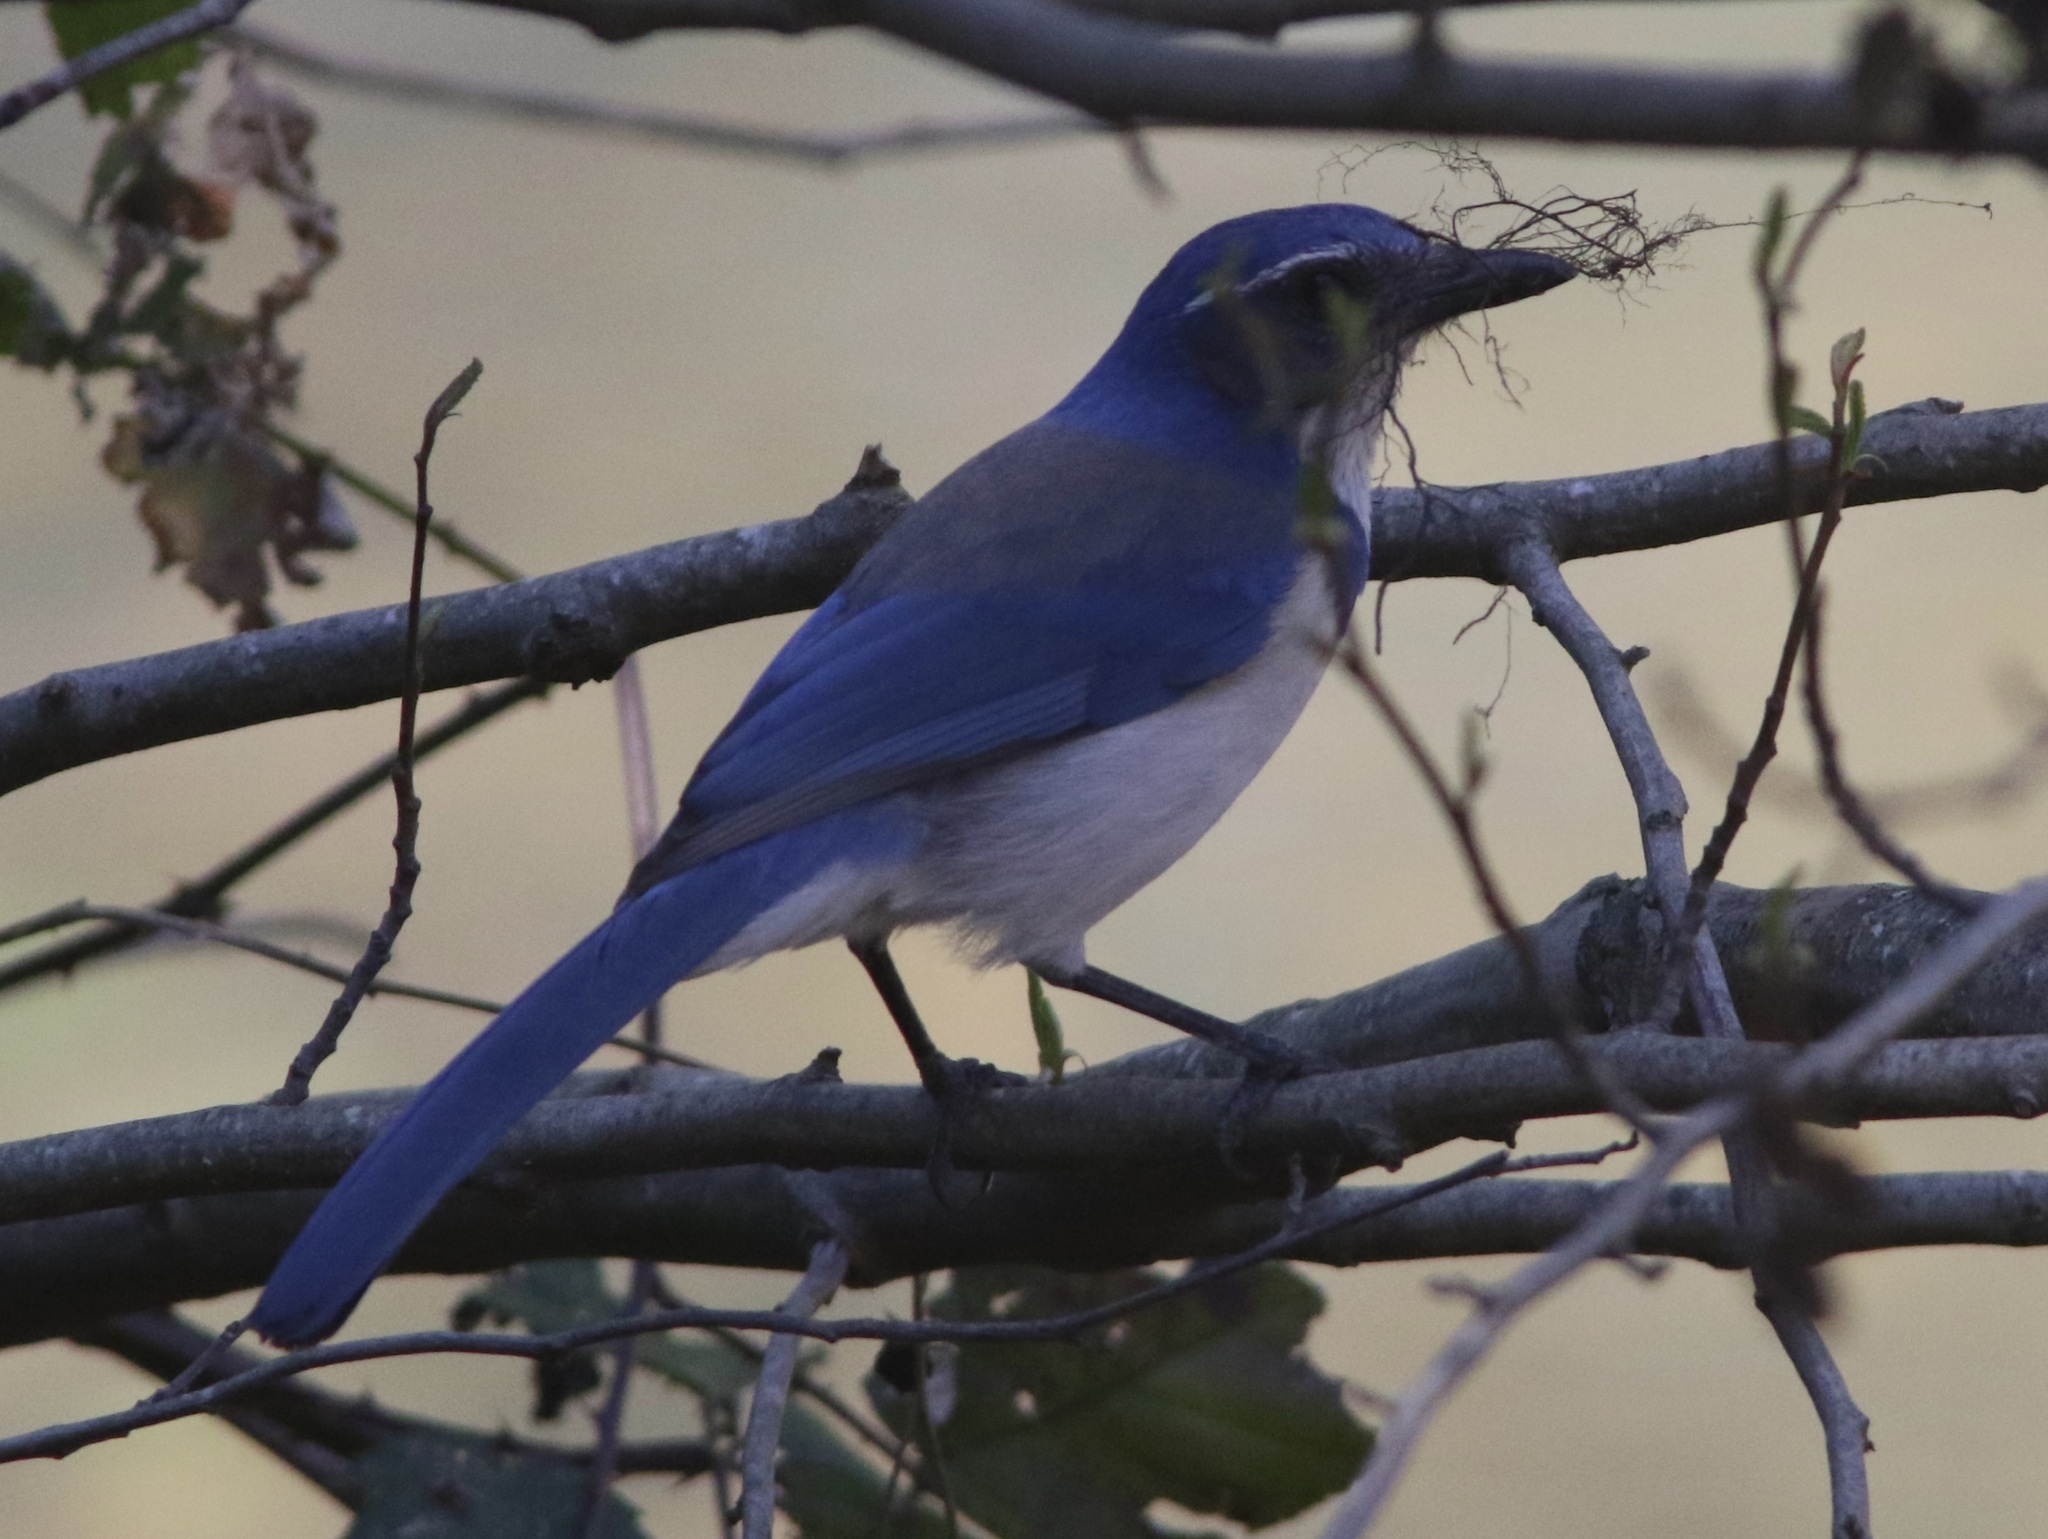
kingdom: Animalia
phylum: Chordata
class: Aves
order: Passeriformes
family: Corvidae
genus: Aphelocoma
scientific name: Aphelocoma californica
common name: California scrub-jay
